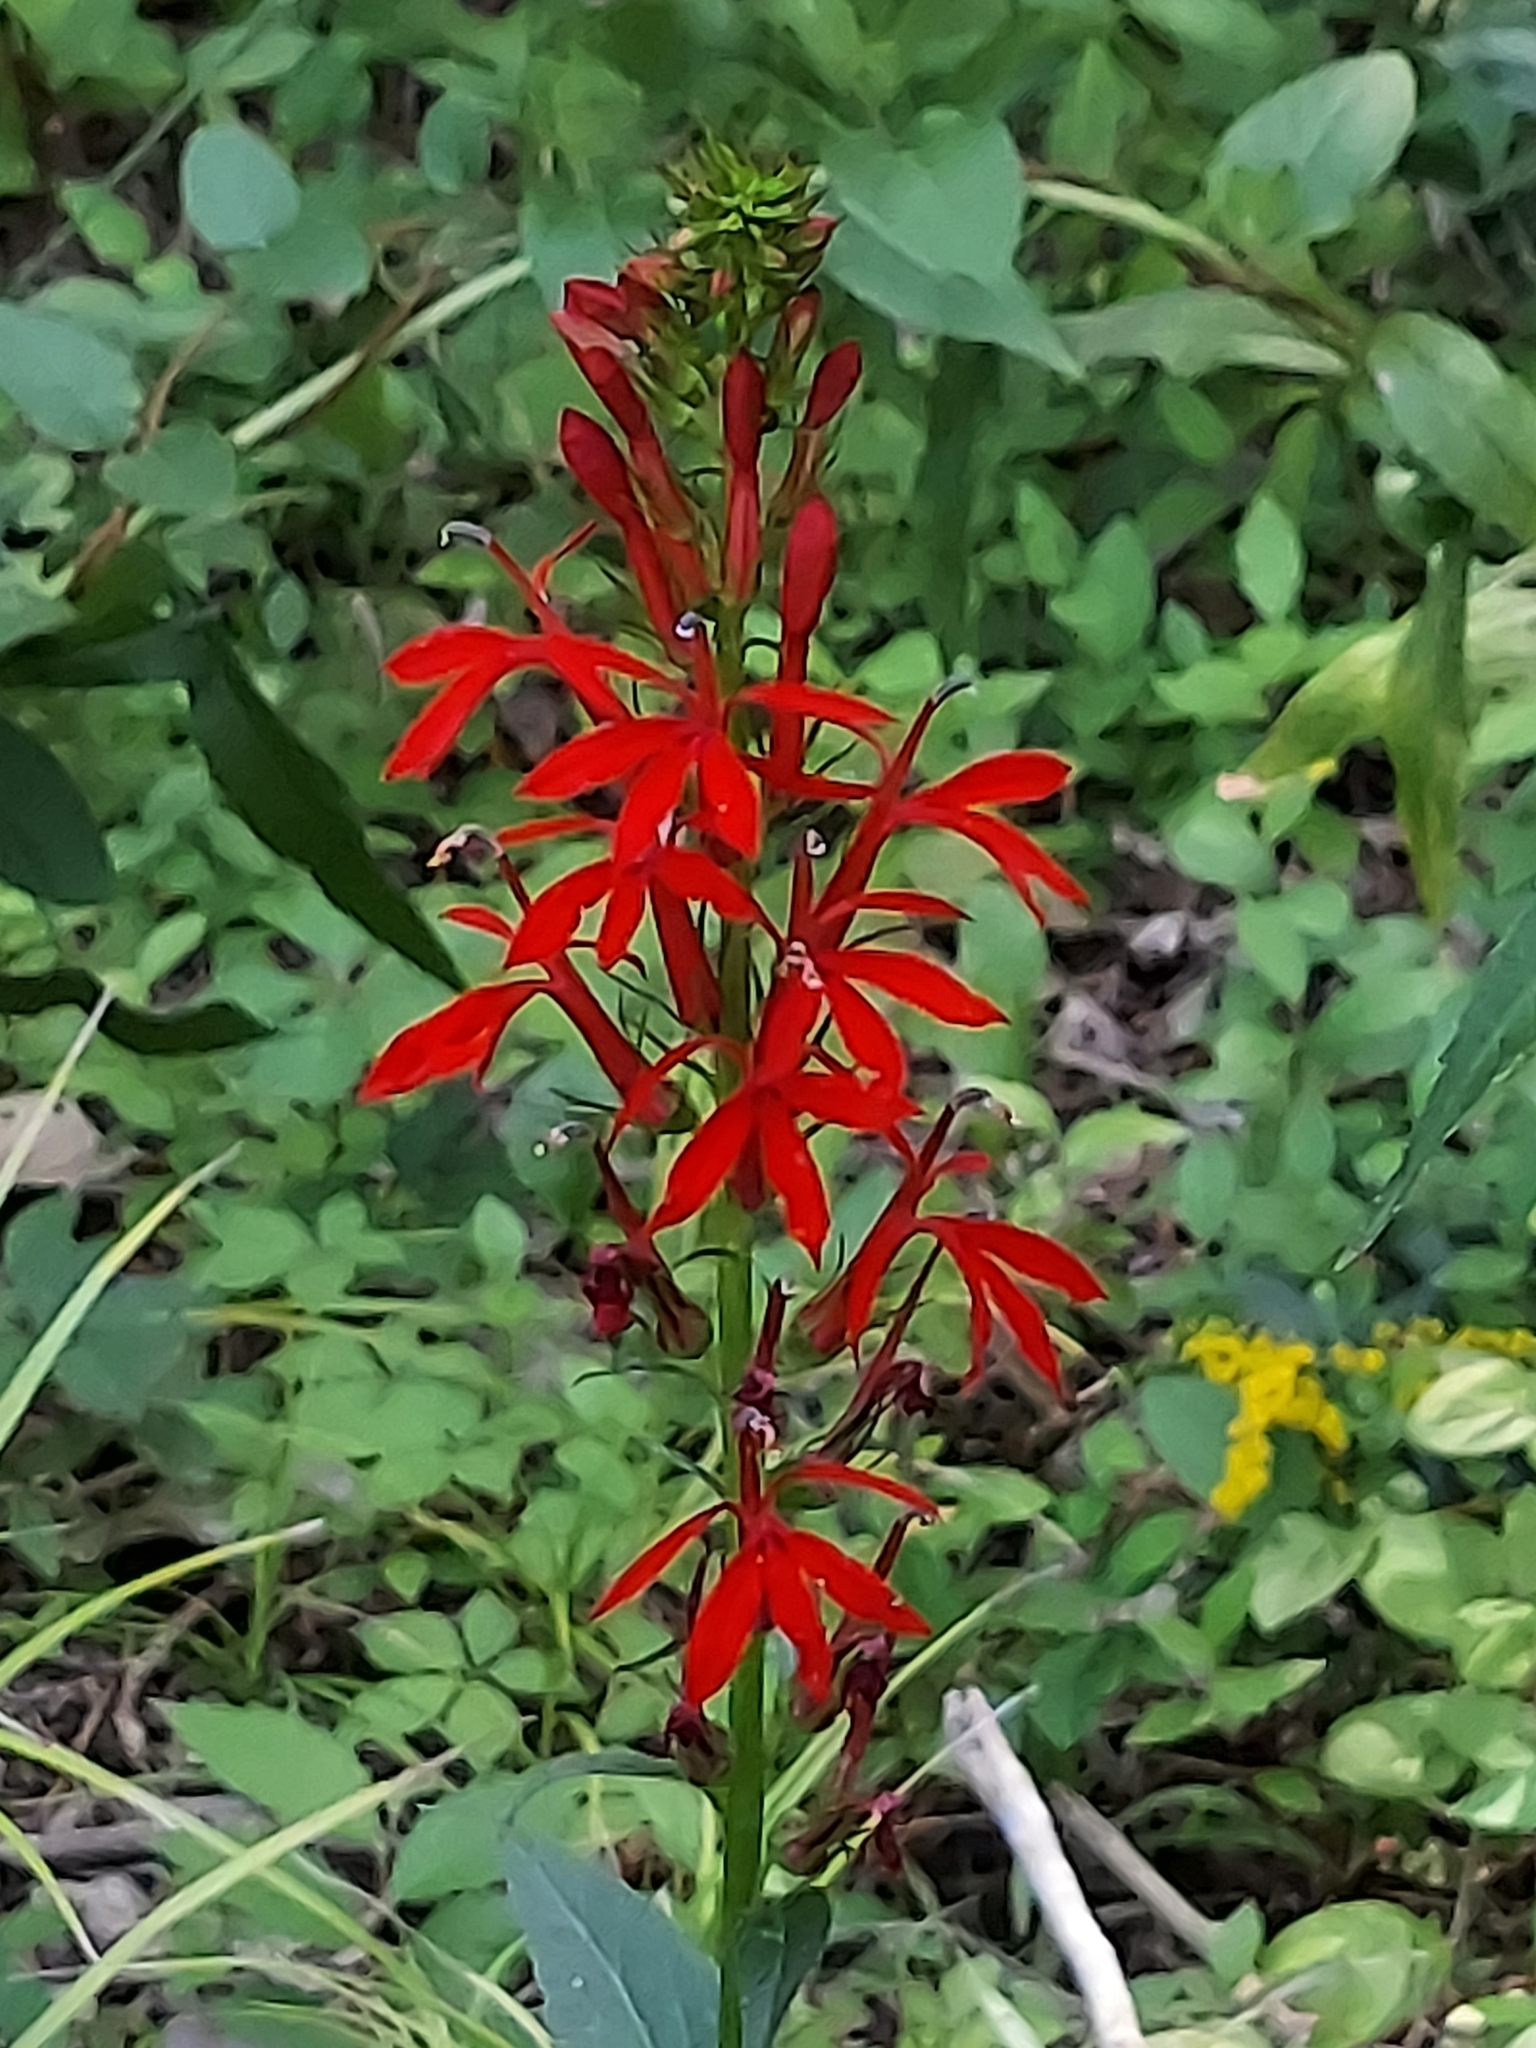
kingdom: Plantae
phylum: Tracheophyta
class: Magnoliopsida
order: Asterales
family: Campanulaceae
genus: Lobelia
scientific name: Lobelia cardinalis
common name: Cardinal flower
